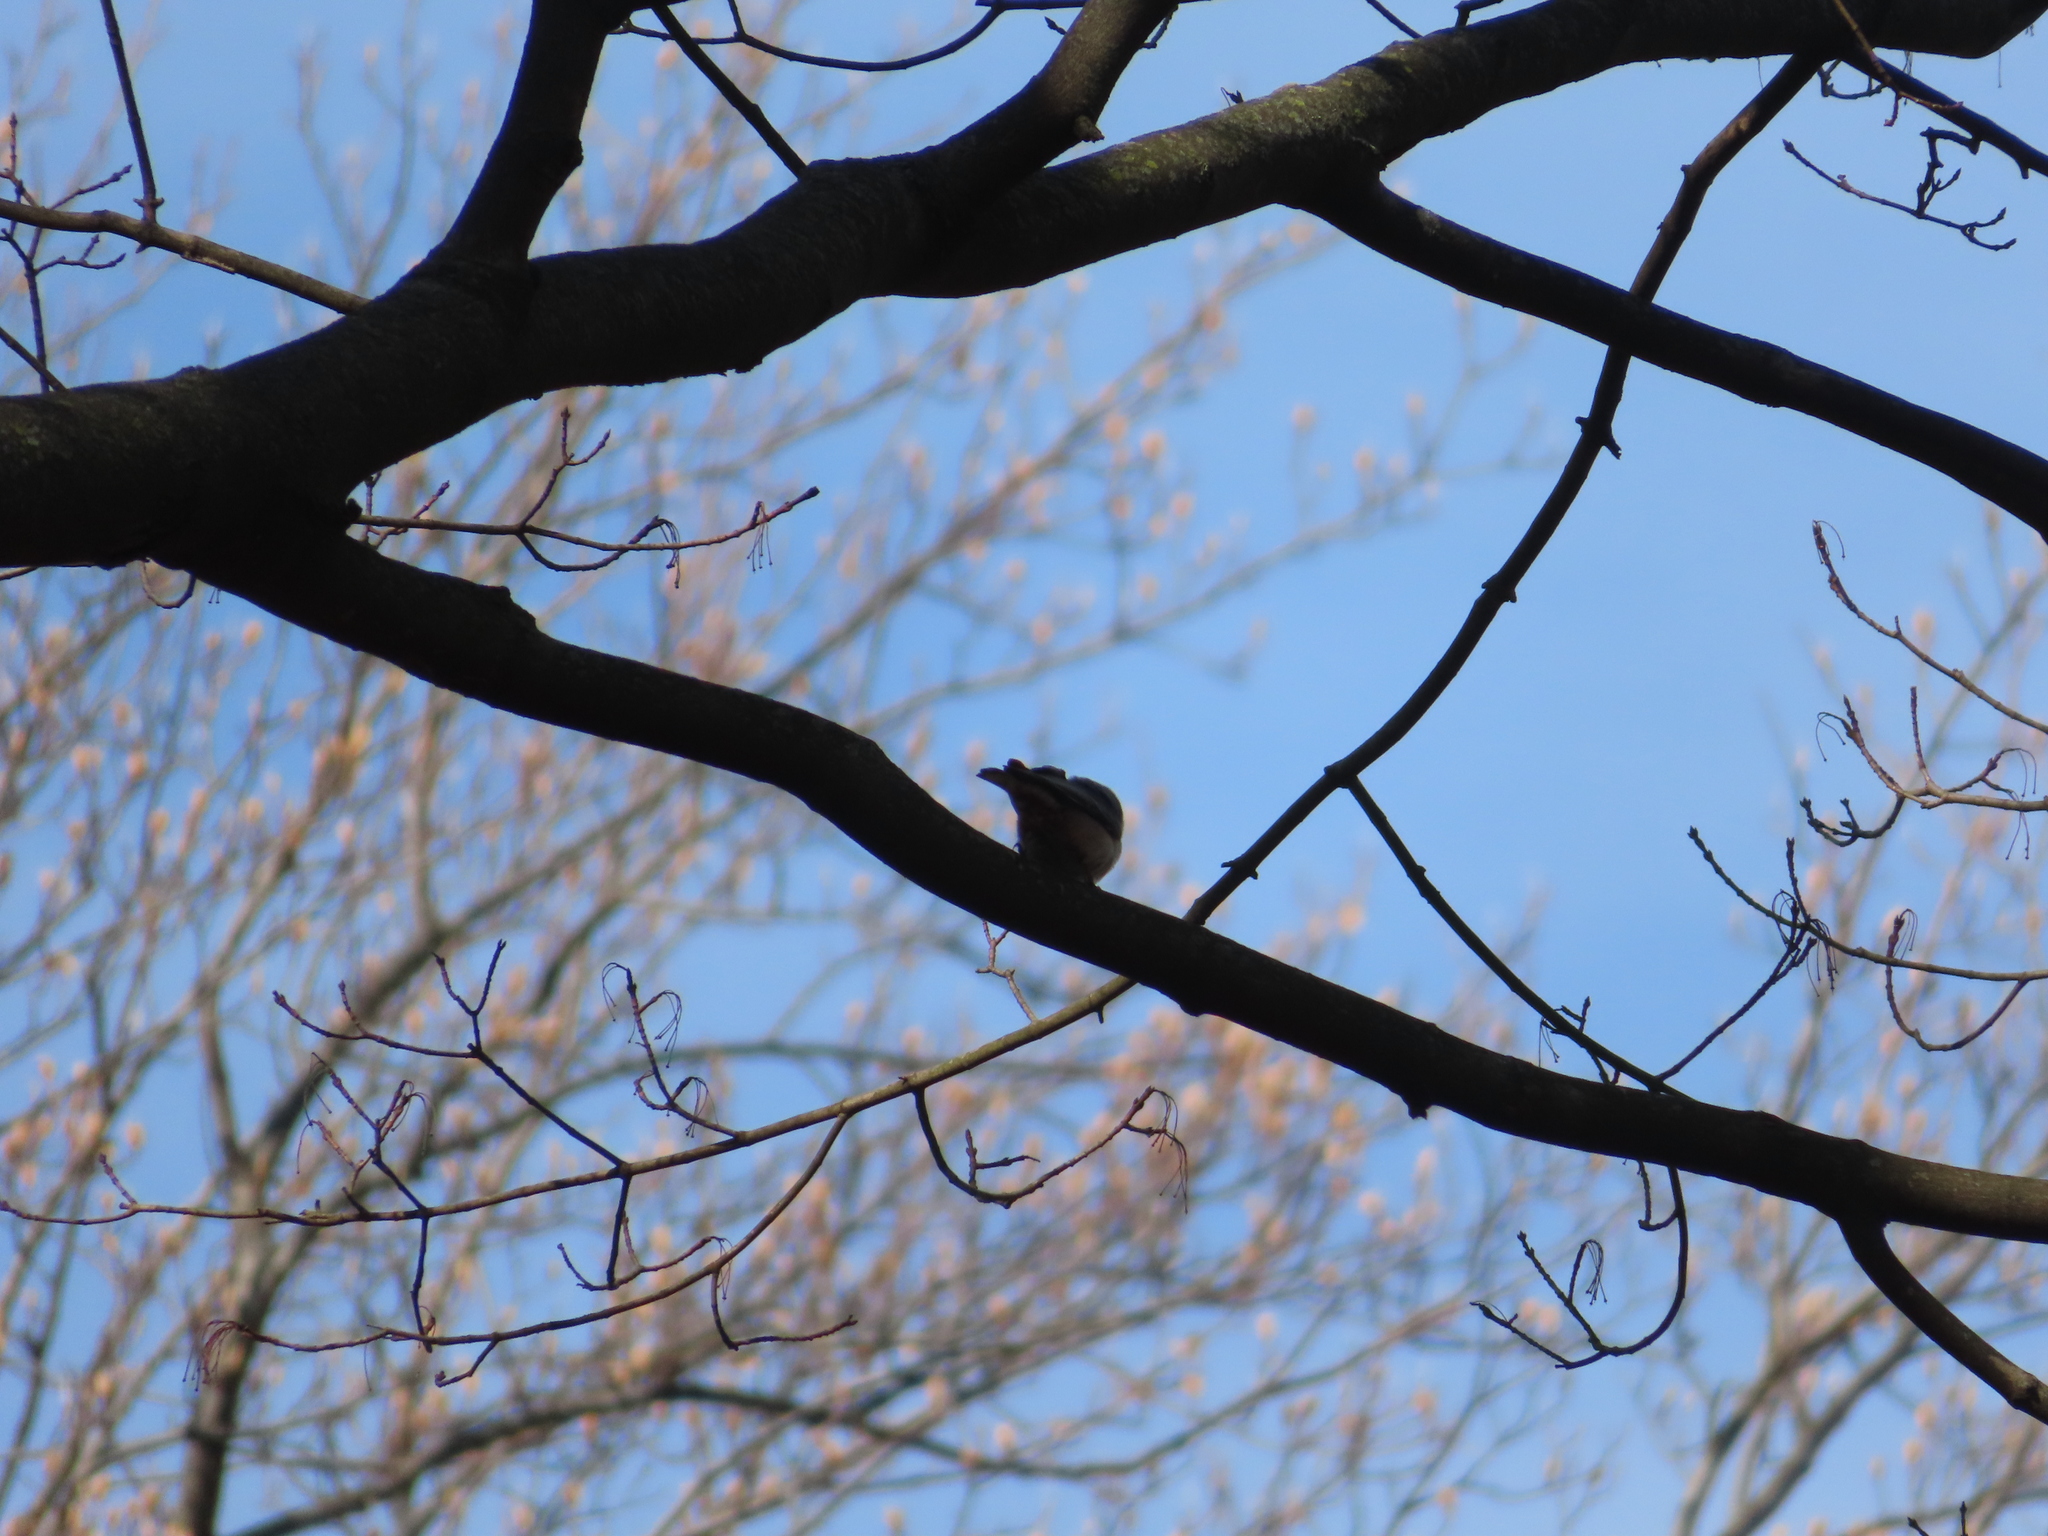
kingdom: Animalia
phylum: Chordata
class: Aves
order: Passeriformes
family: Sittidae
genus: Sitta
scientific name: Sitta carolinensis
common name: White-breasted nuthatch
